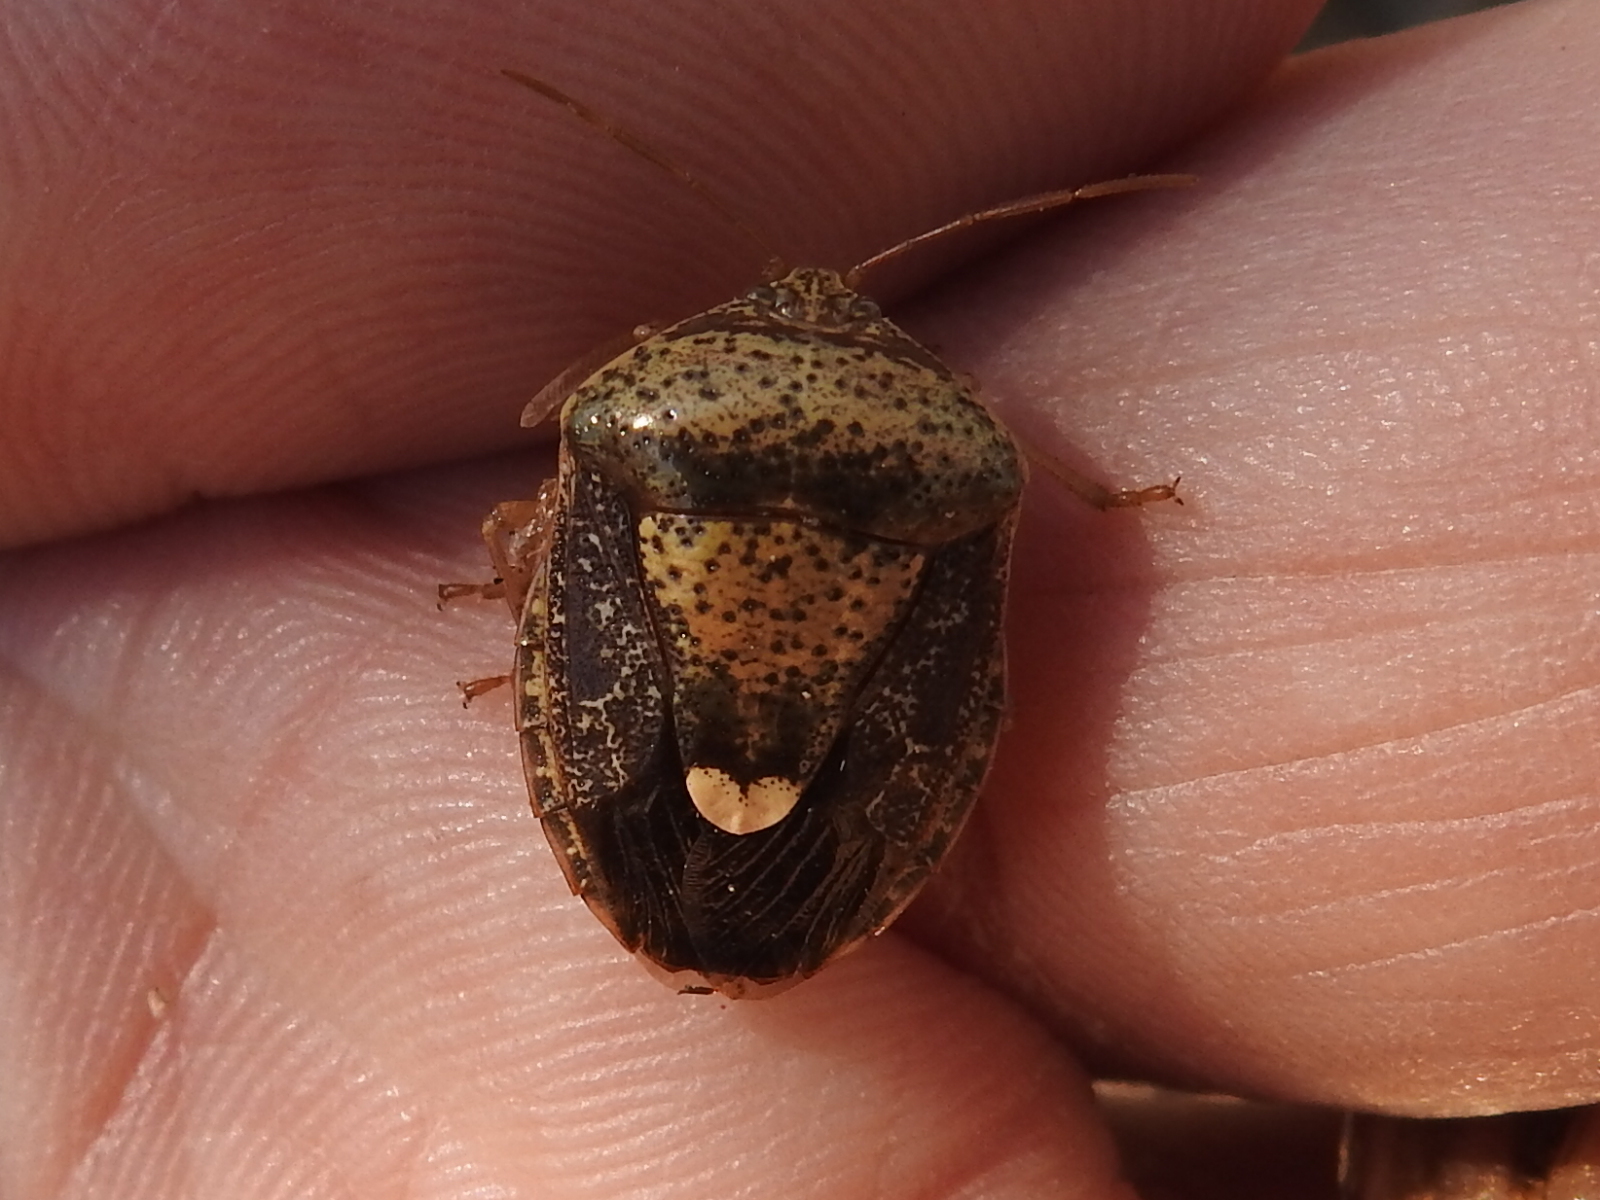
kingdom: Animalia
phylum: Arthropoda
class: Insecta
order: Hemiptera
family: Pentatomidae
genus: Edessa
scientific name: Edessa bifida
